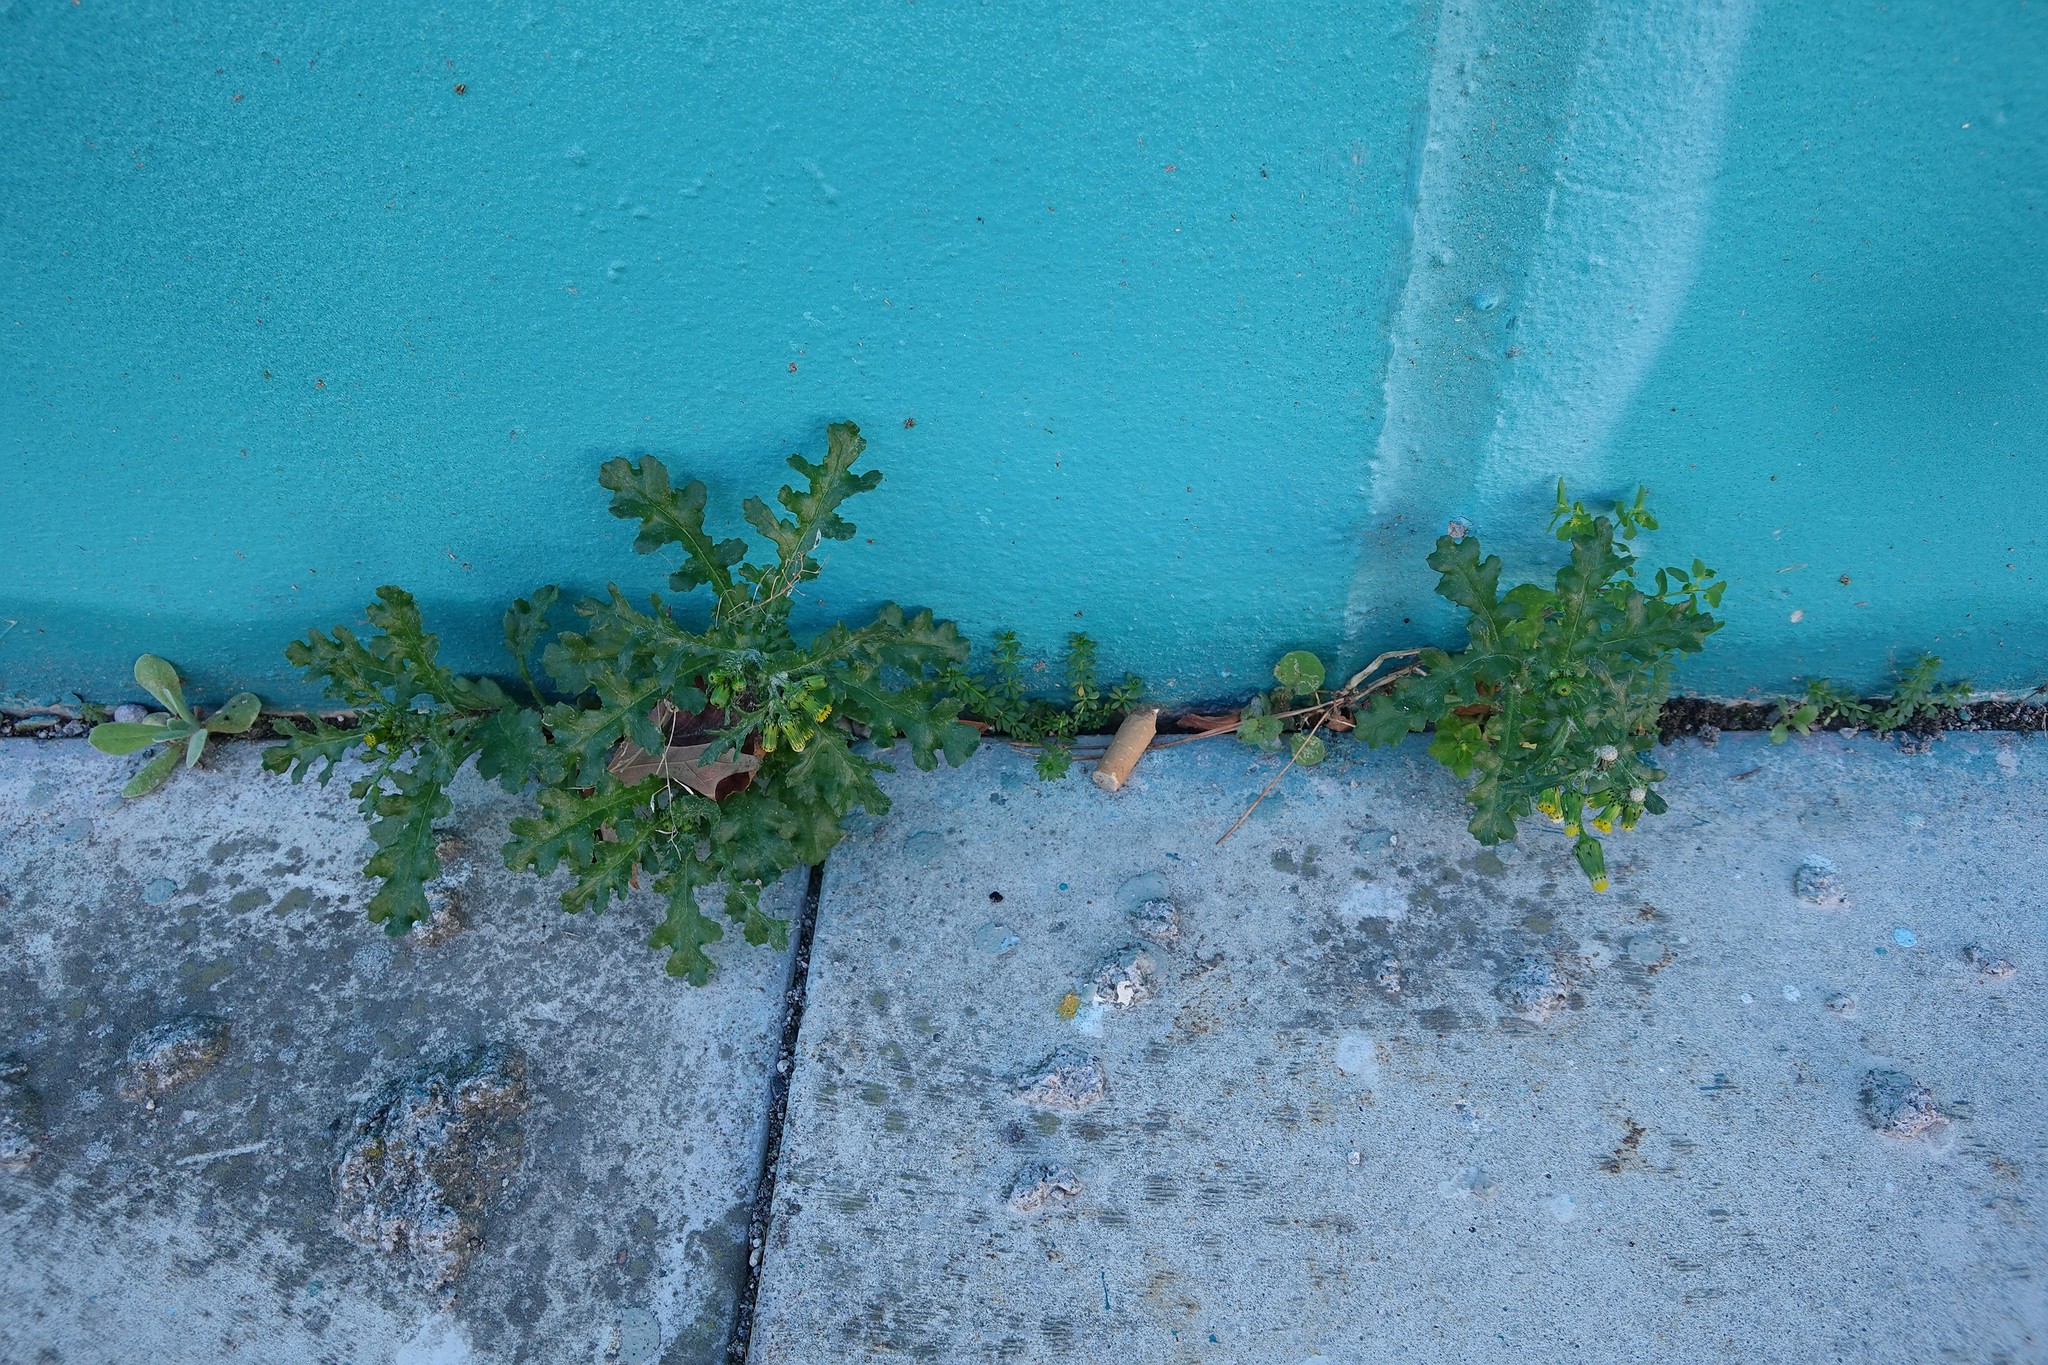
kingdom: Plantae
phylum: Tracheophyta
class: Magnoliopsida
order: Asterales
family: Asteraceae
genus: Senecio
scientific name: Senecio vulgaris
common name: Old-man-in-the-spring
